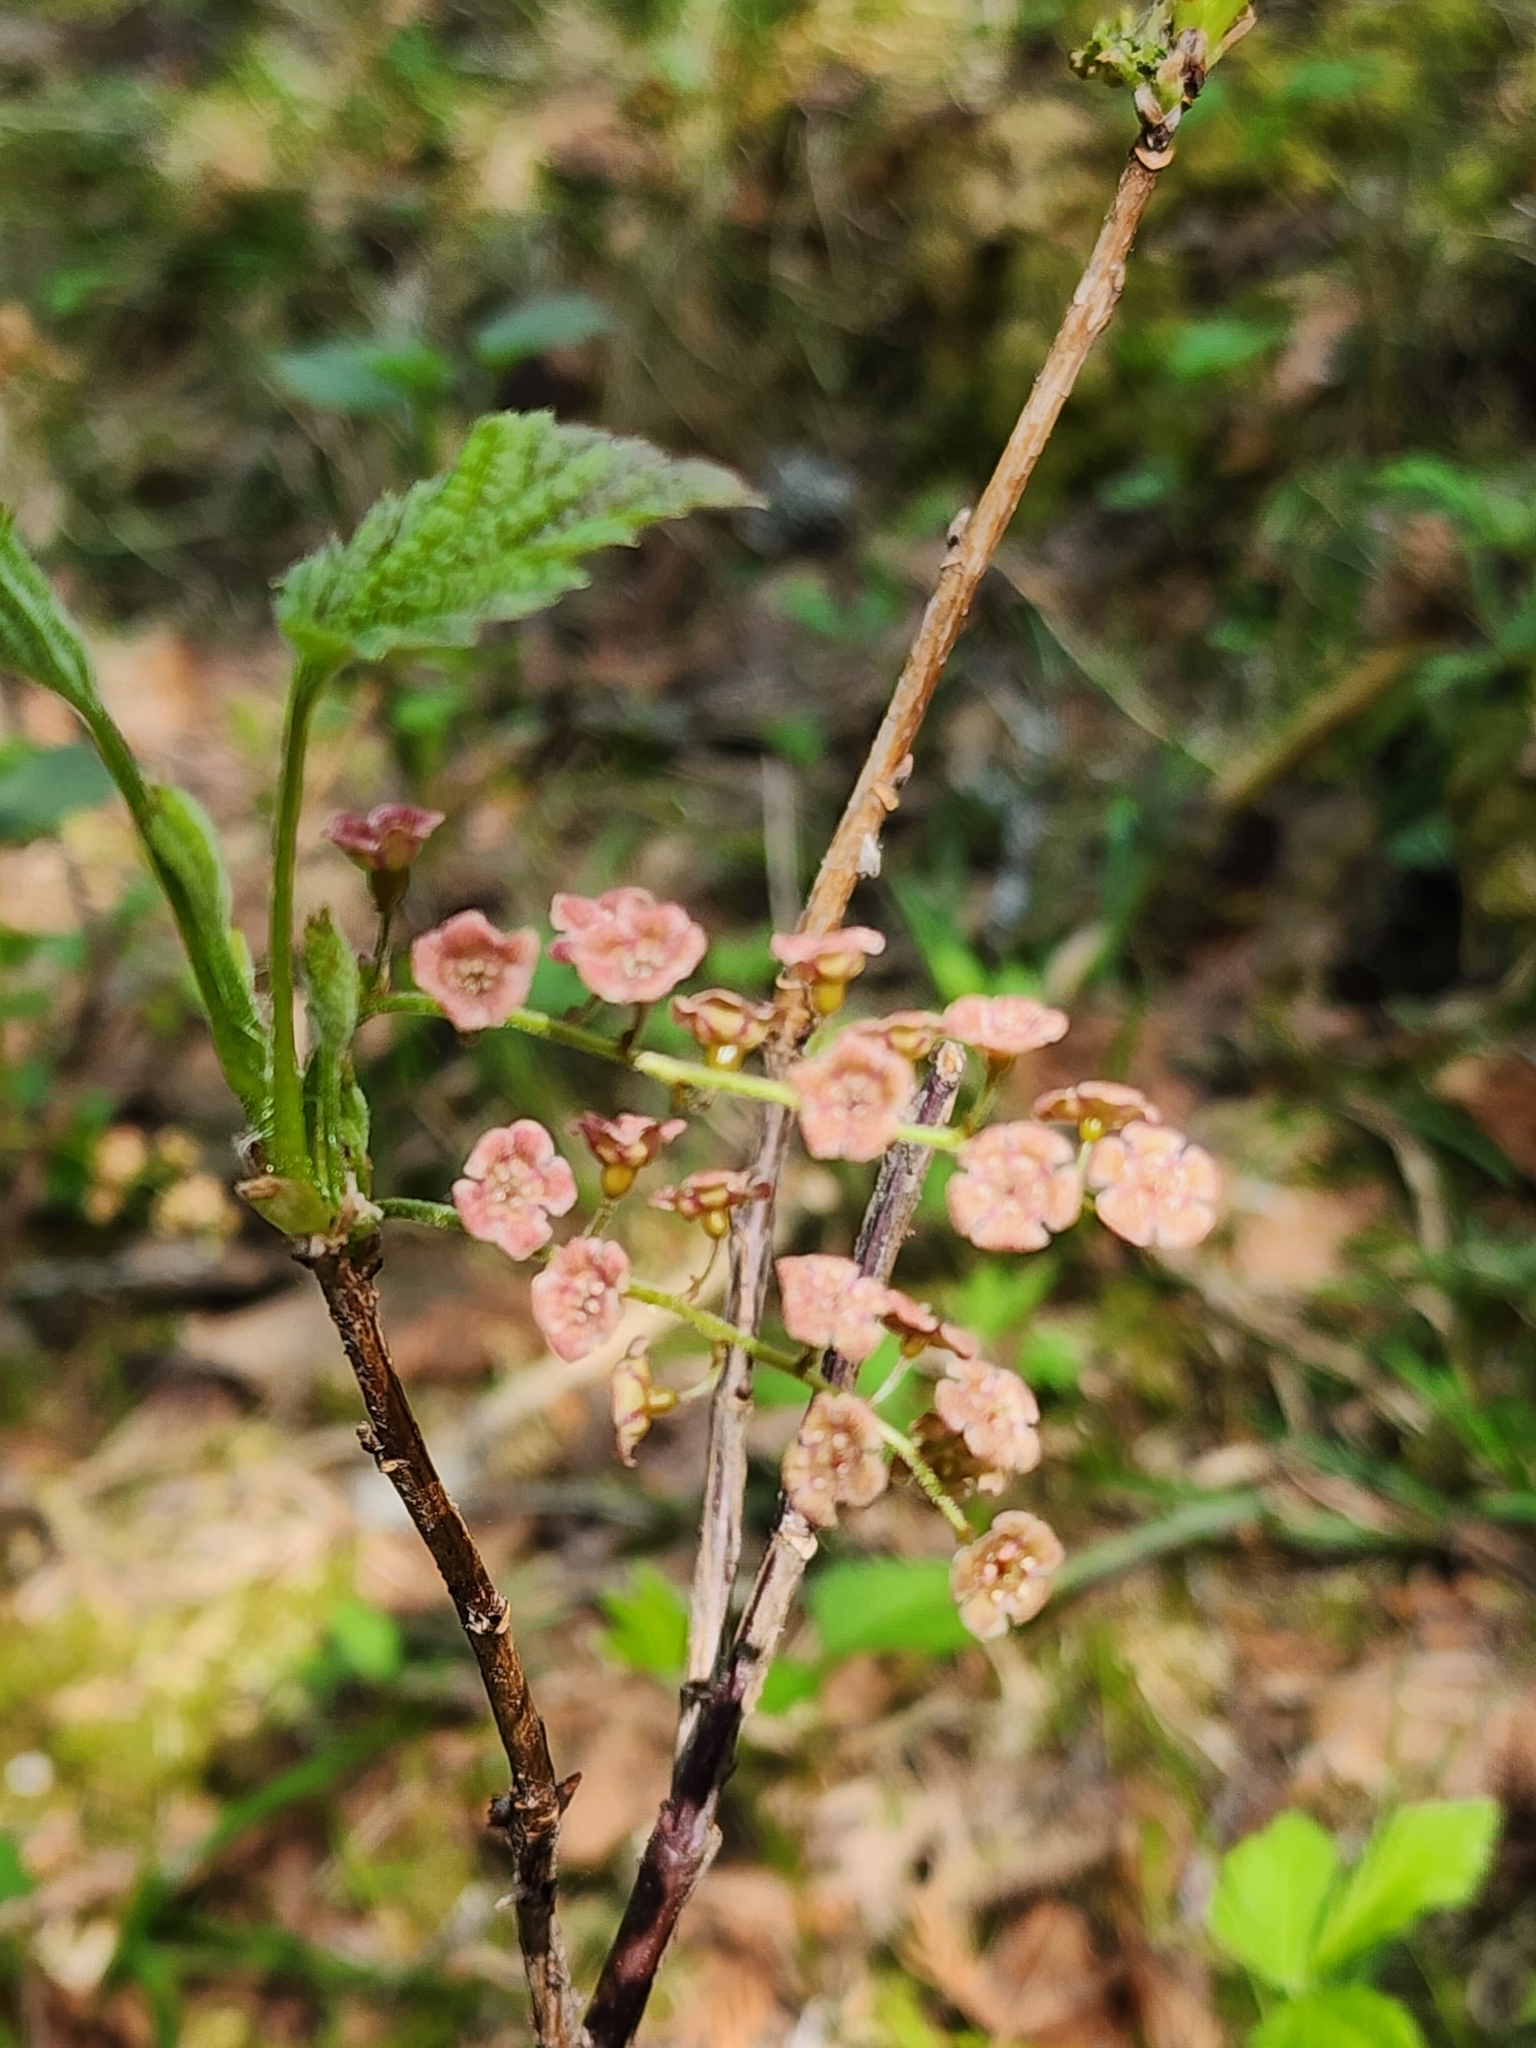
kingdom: Plantae
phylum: Tracheophyta
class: Magnoliopsida
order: Saxifragales
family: Grossulariaceae
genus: Ribes
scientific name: Ribes triste
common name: Swamp red currant
